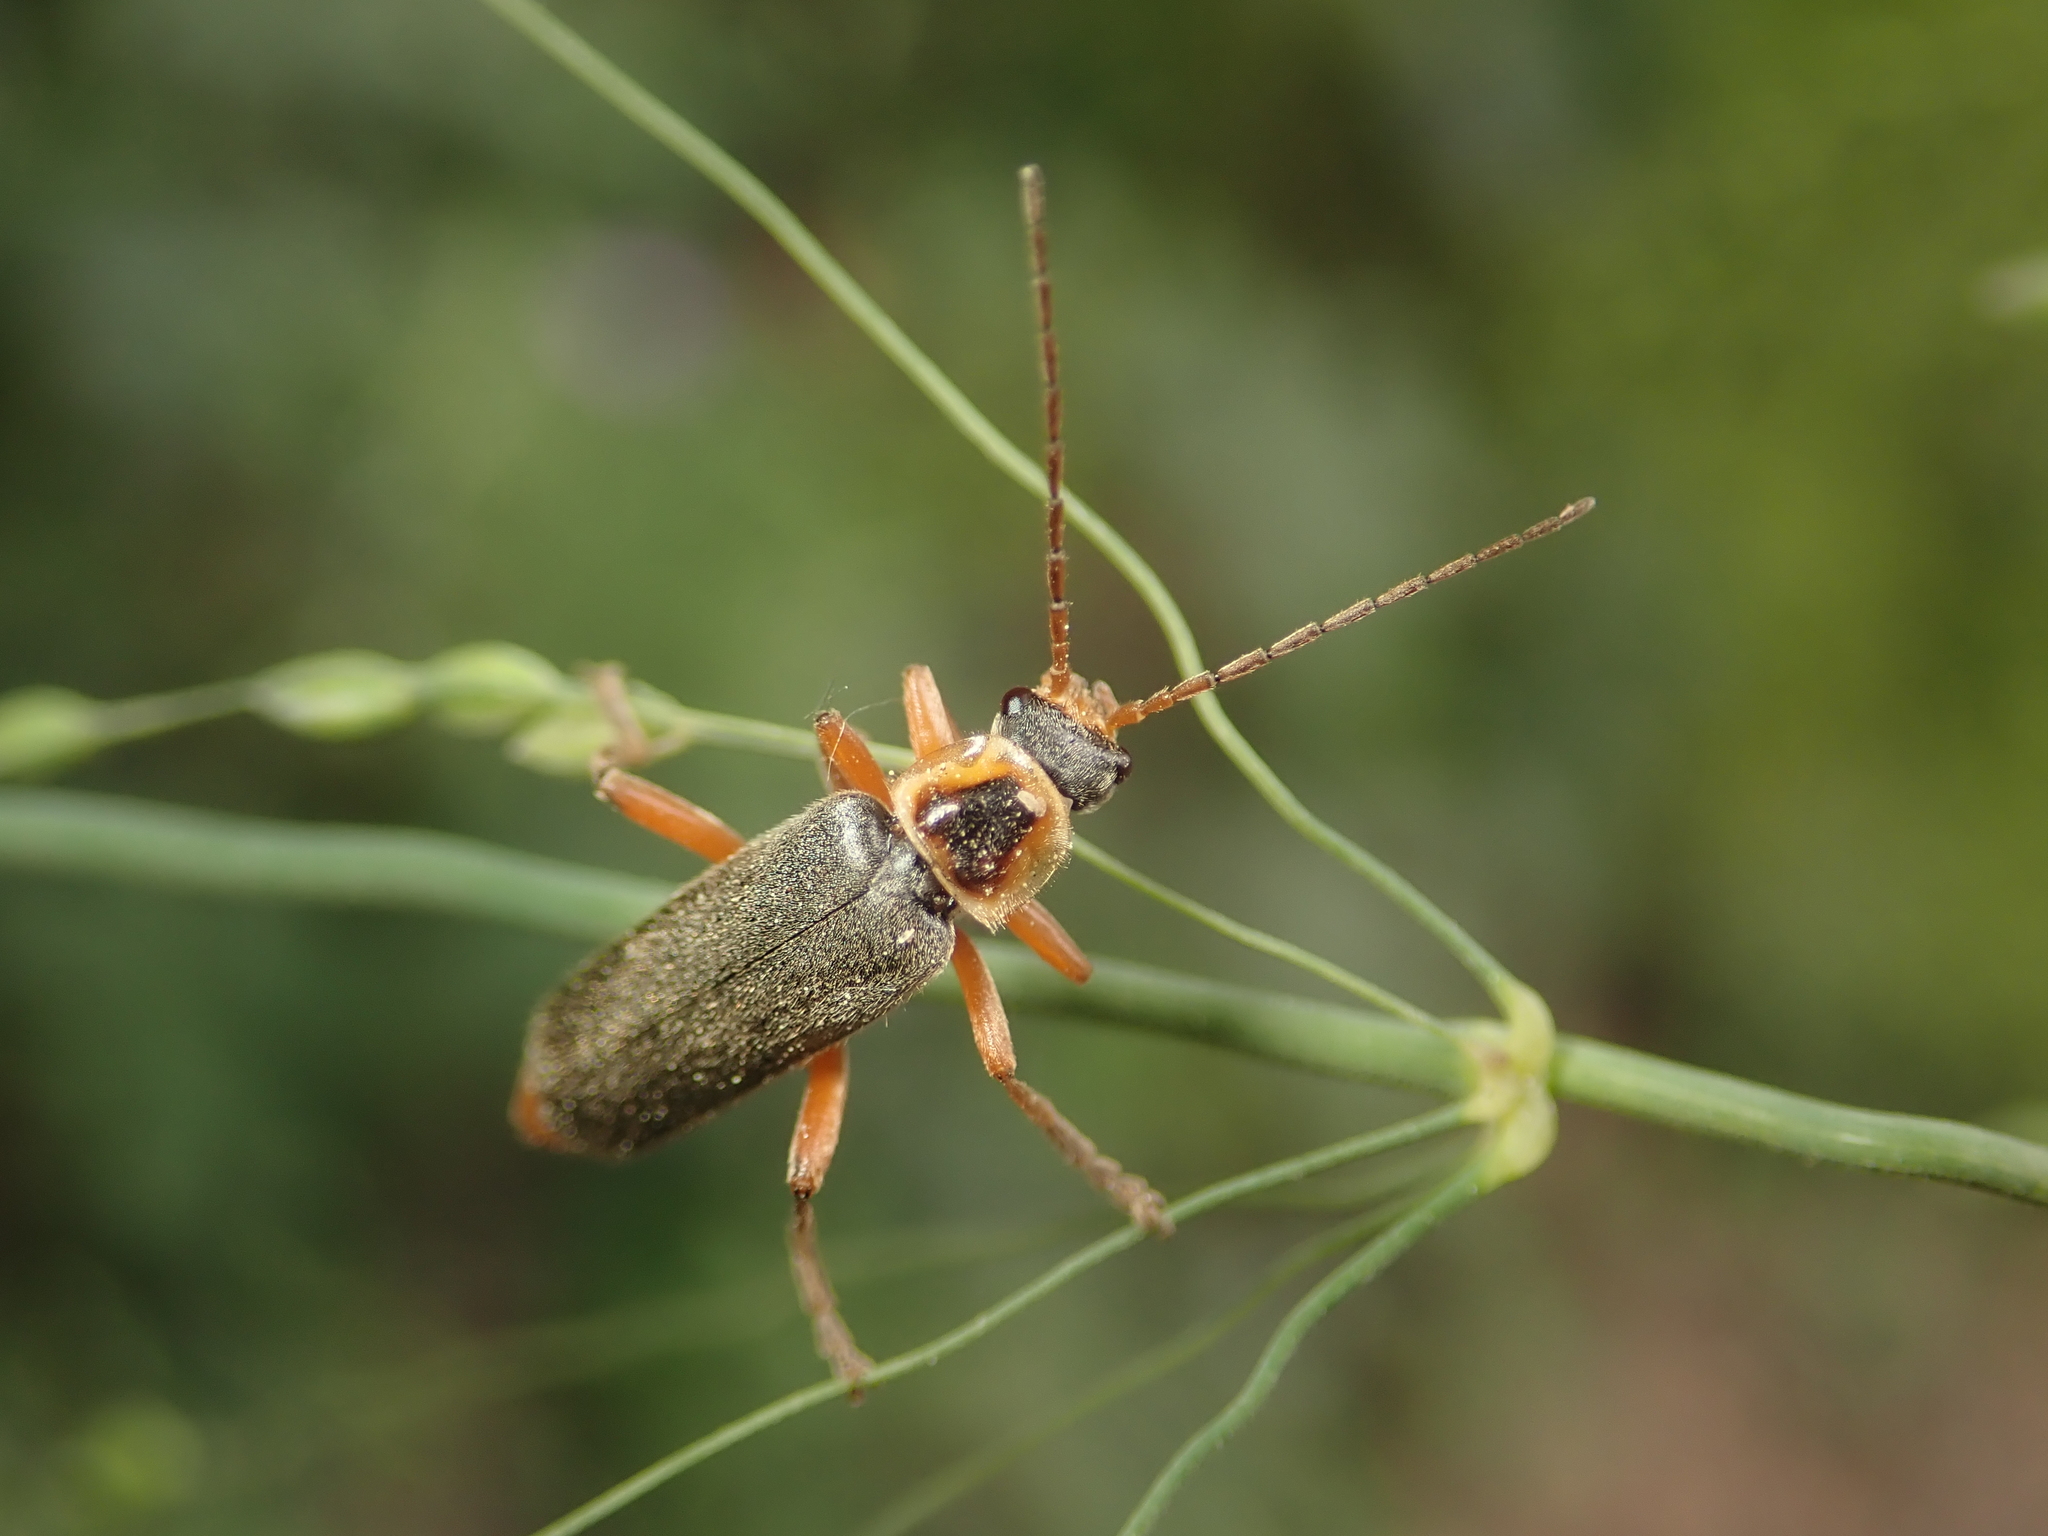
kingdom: Animalia
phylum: Arthropoda
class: Insecta
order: Coleoptera
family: Cantharidae
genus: Cantharis
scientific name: Cantharis nigricans
